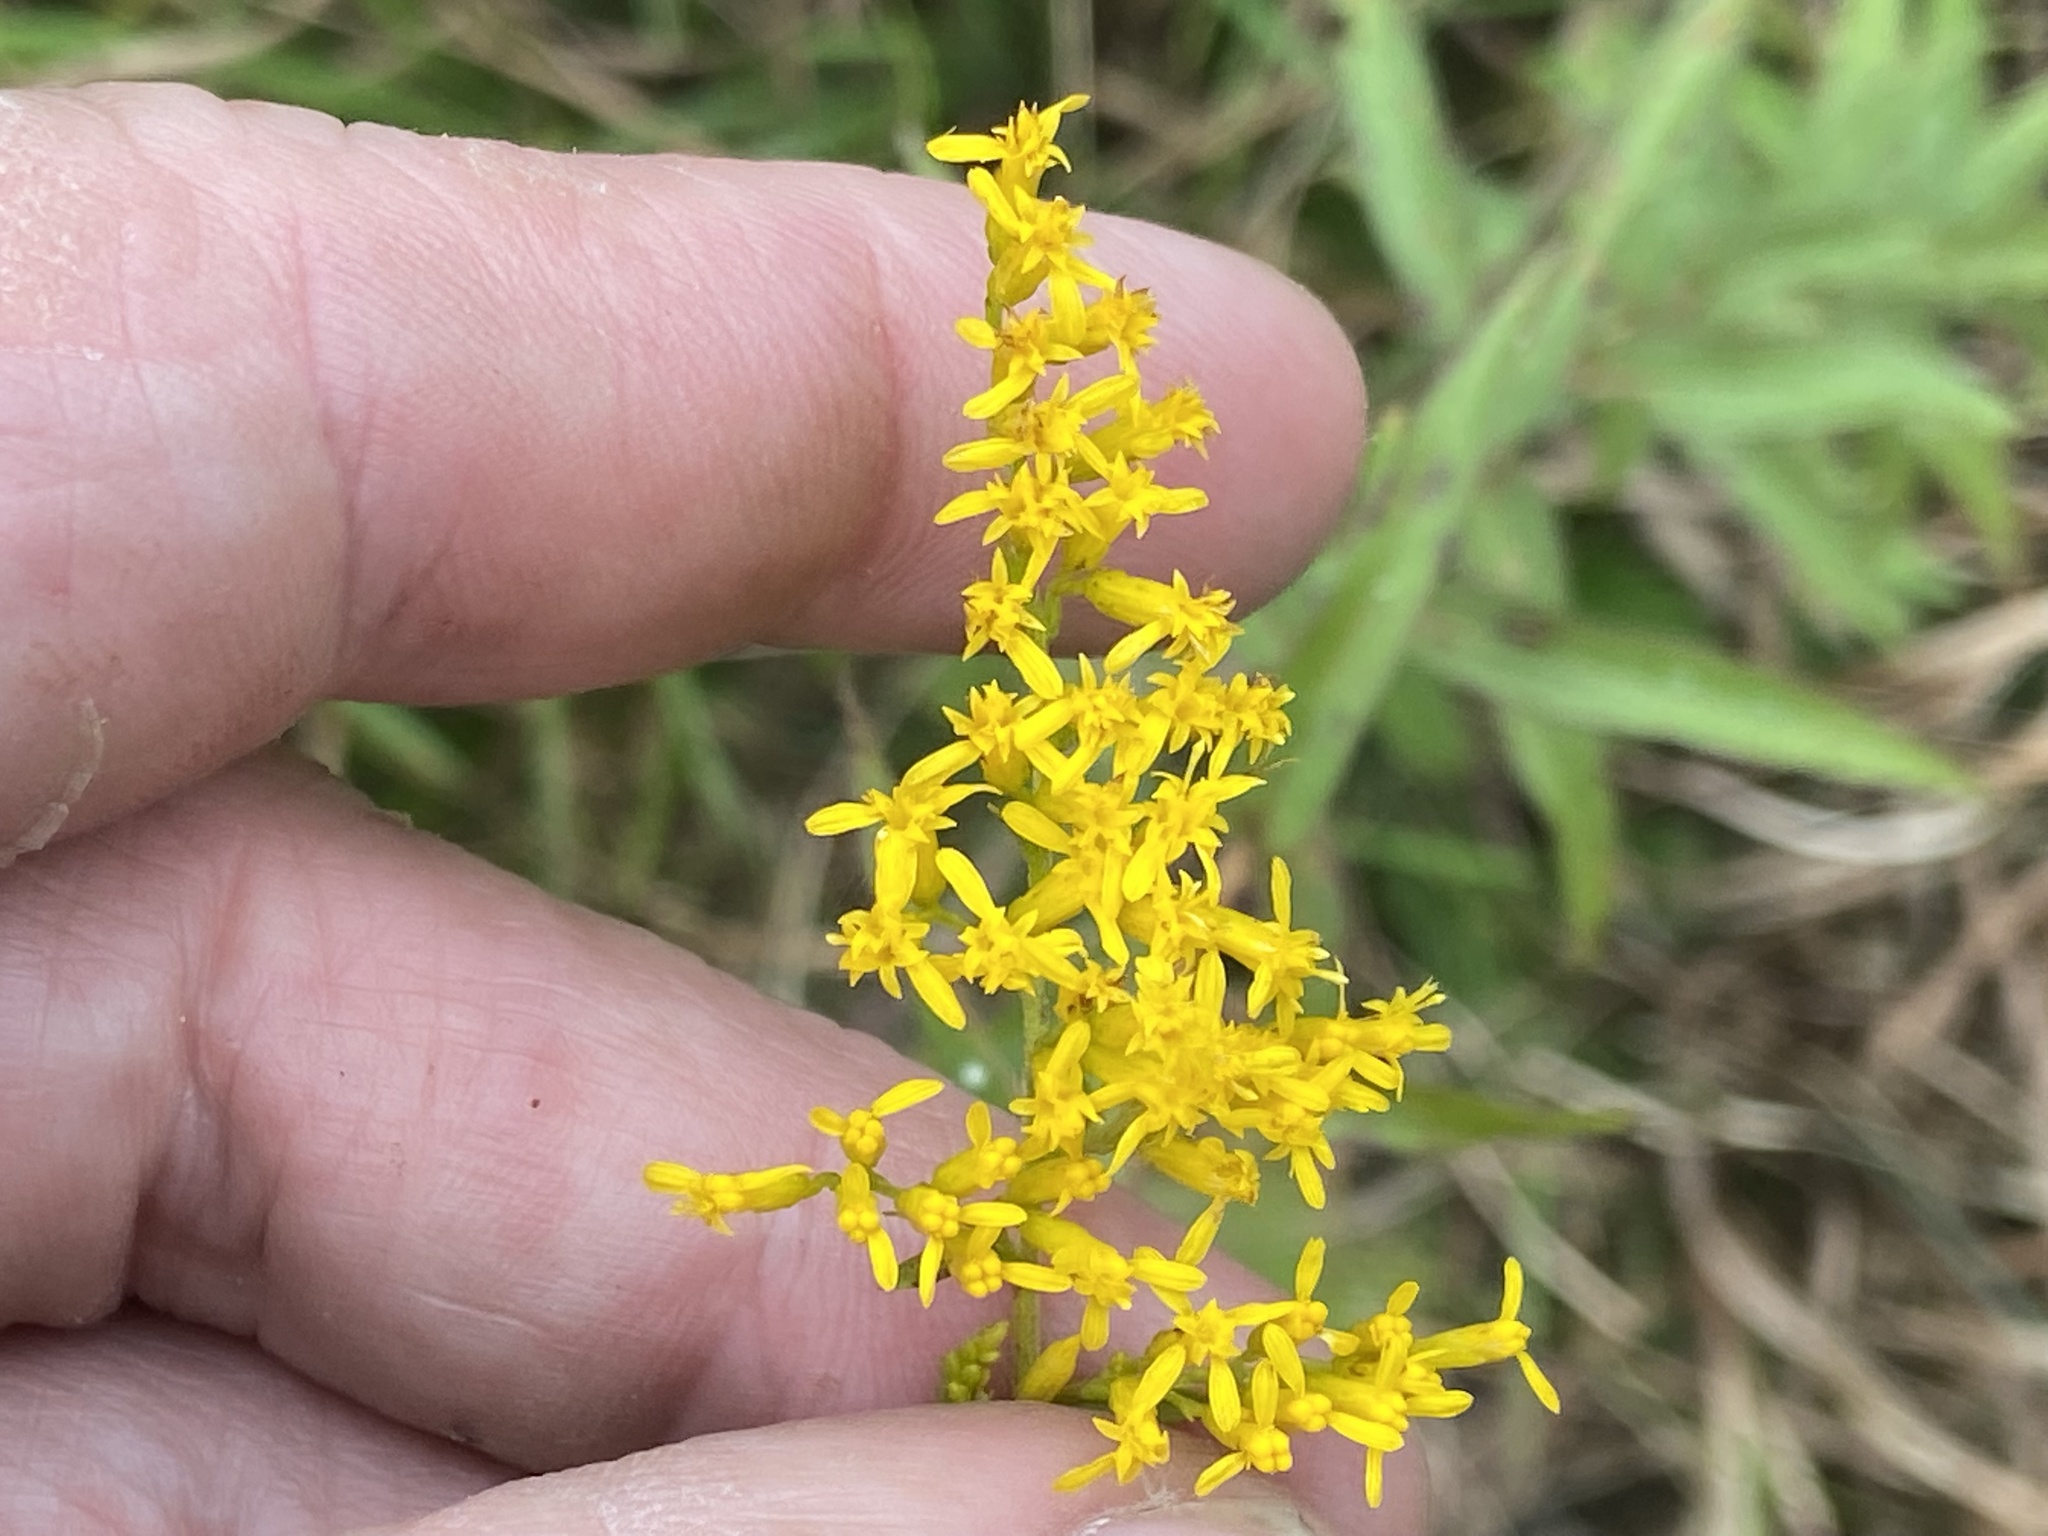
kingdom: Plantae
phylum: Tracheophyta
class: Magnoliopsida
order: Asterales
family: Asteraceae
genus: Solidago
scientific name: Solidago odora
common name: Anise-scented goldenrod
